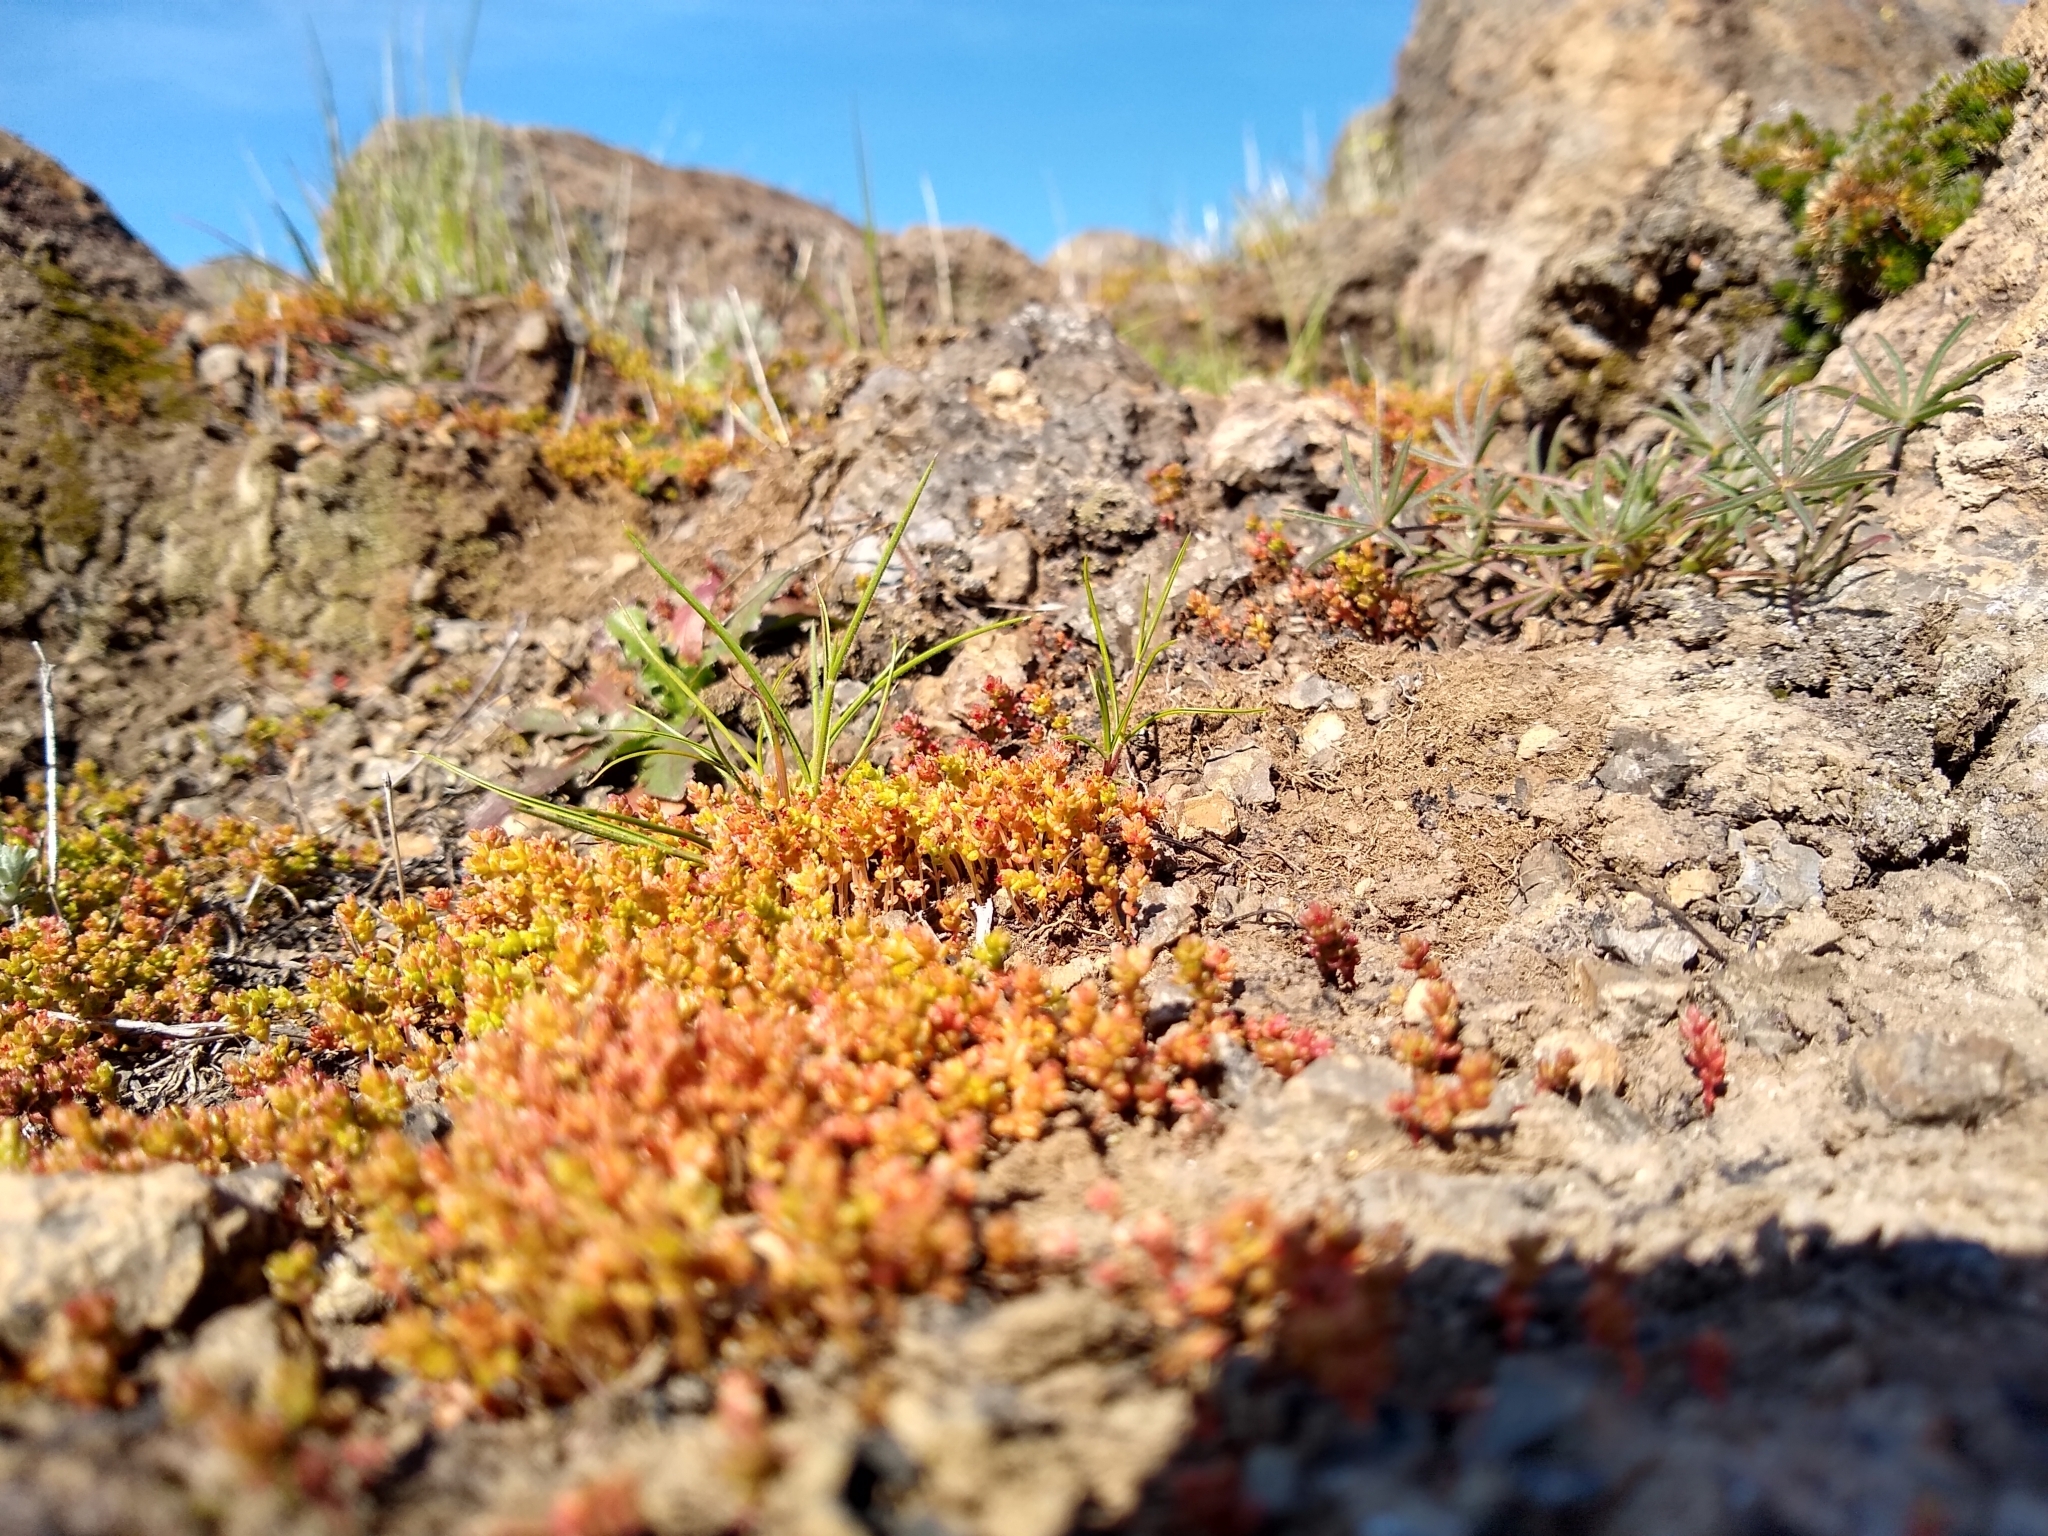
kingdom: Plantae
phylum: Tracheophyta
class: Magnoliopsida
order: Saxifragales
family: Crassulaceae
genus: Crassula
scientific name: Crassula connata
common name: Erect pygmyweed
